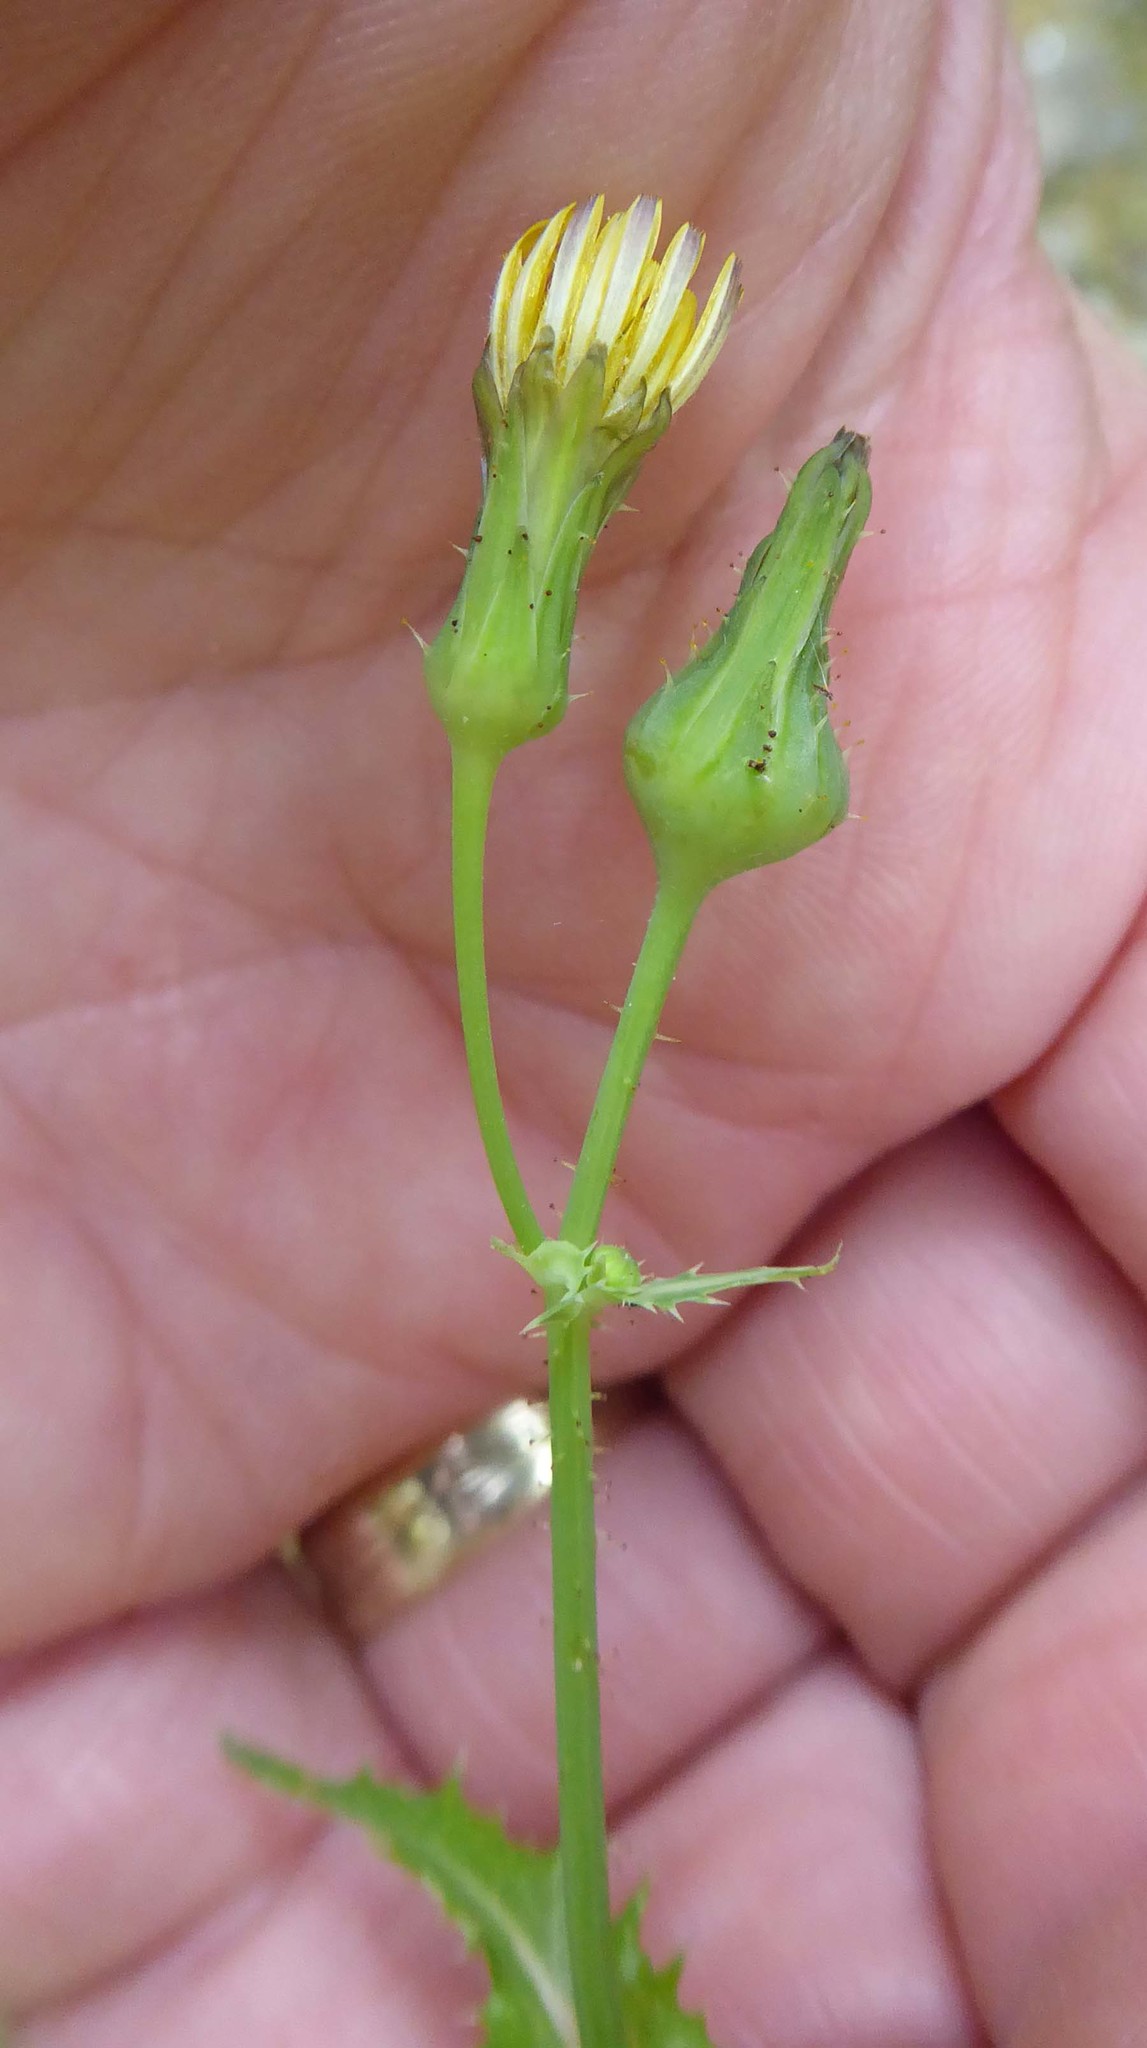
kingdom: Plantae
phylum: Tracheophyta
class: Magnoliopsida
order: Asterales
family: Asteraceae
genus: Sonchus
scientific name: Sonchus asper
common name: Prickly sow-thistle
